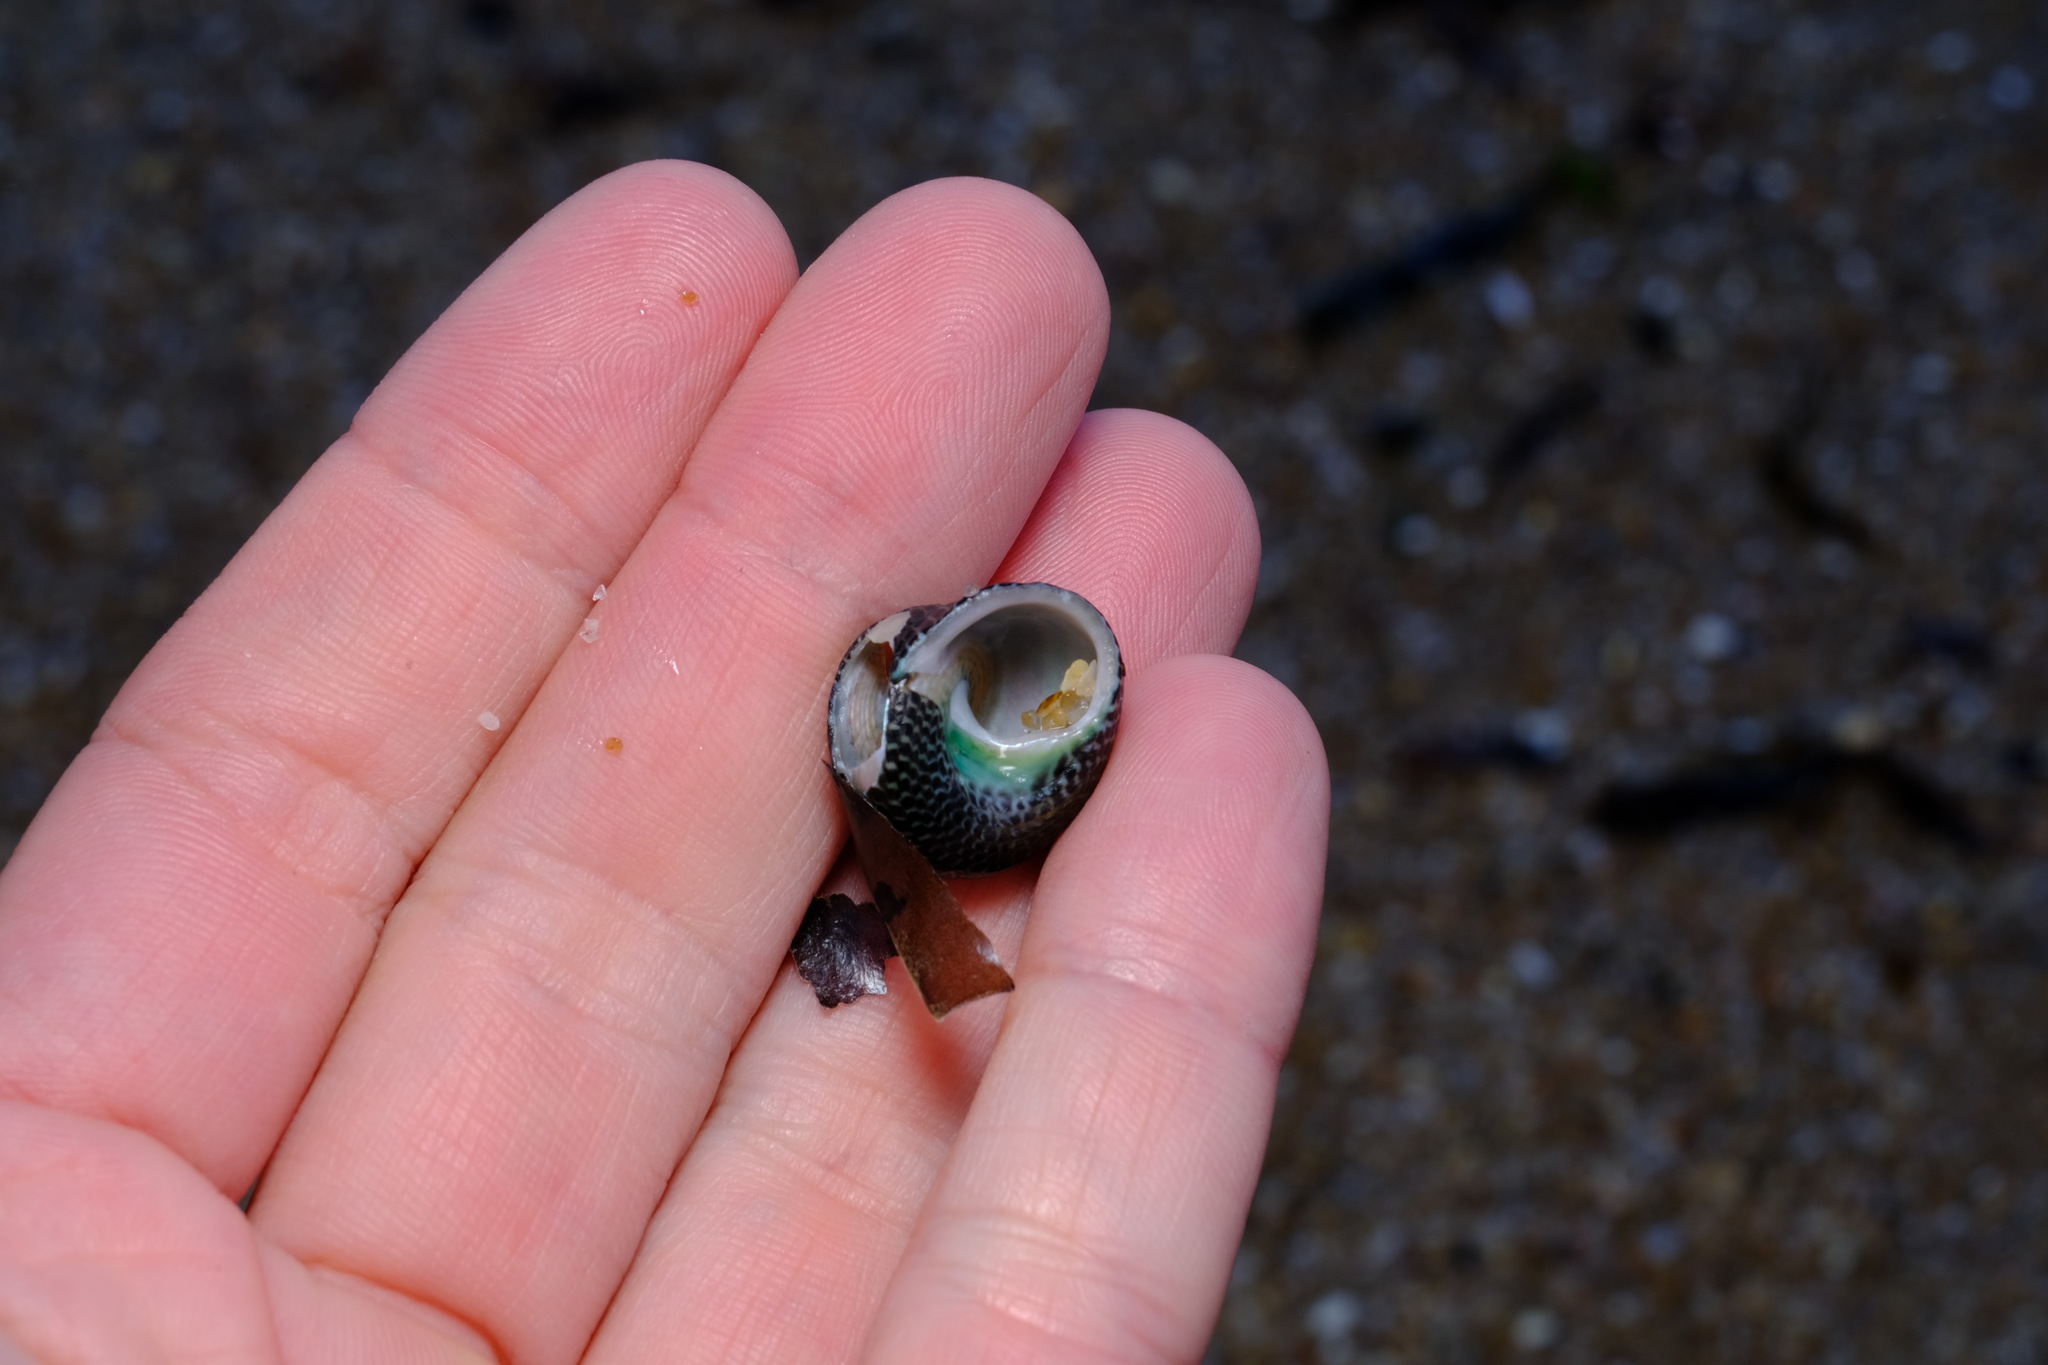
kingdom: Animalia
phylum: Mollusca
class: Gastropoda
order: Trochida
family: Trochidae
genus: Chlorodiloma
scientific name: Chlorodiloma adelaidae
